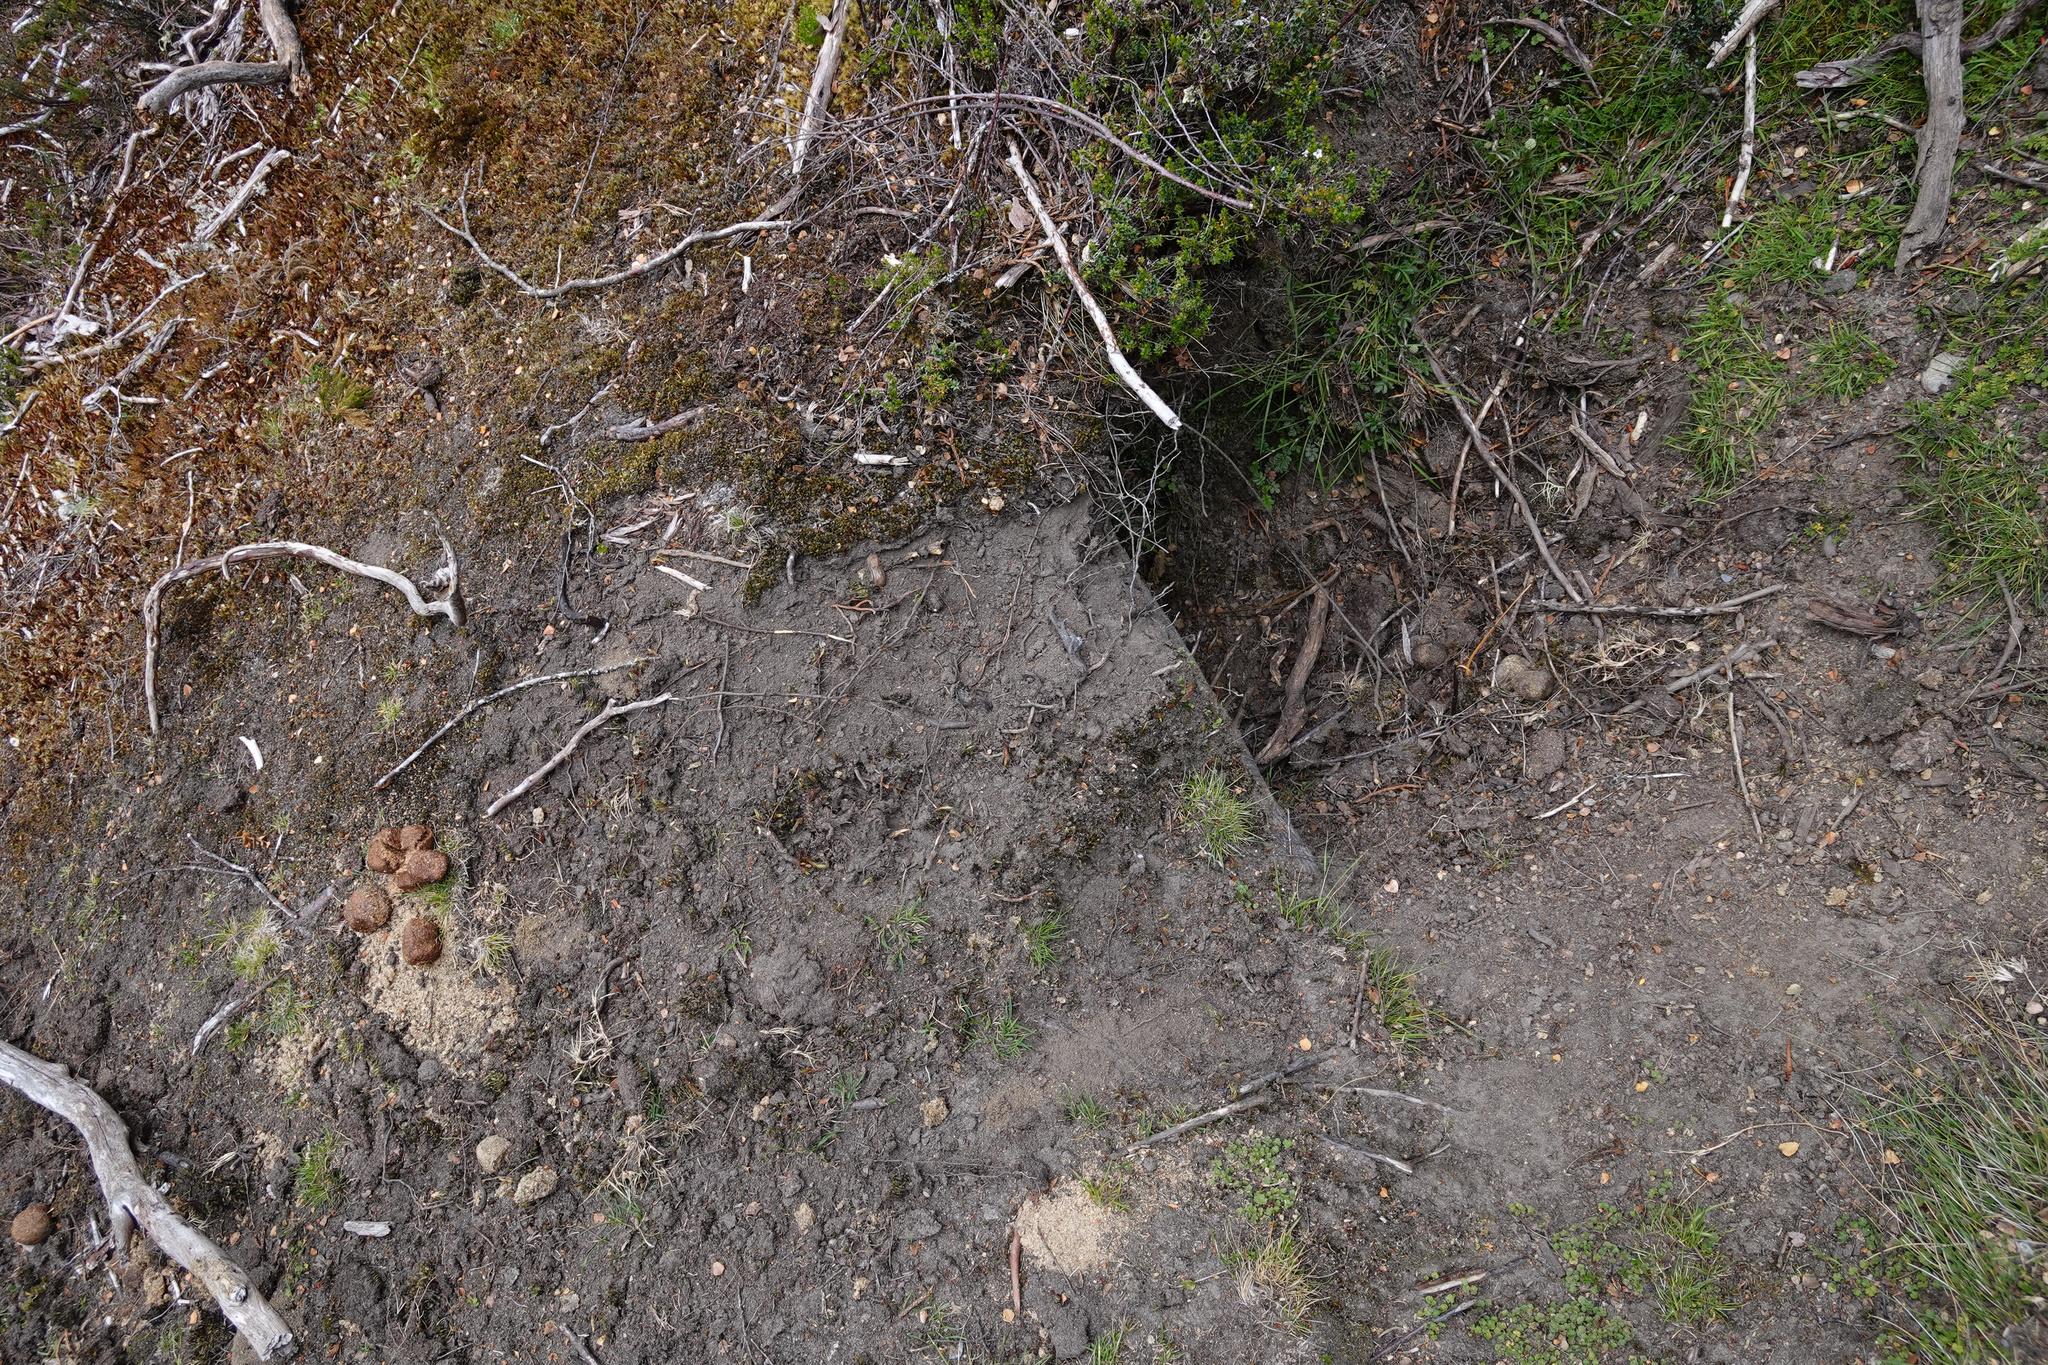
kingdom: Animalia
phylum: Chordata
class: Mammalia
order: Diprotodontia
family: Vombatidae
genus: Vombatus
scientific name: Vombatus ursinus
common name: Common wombat
